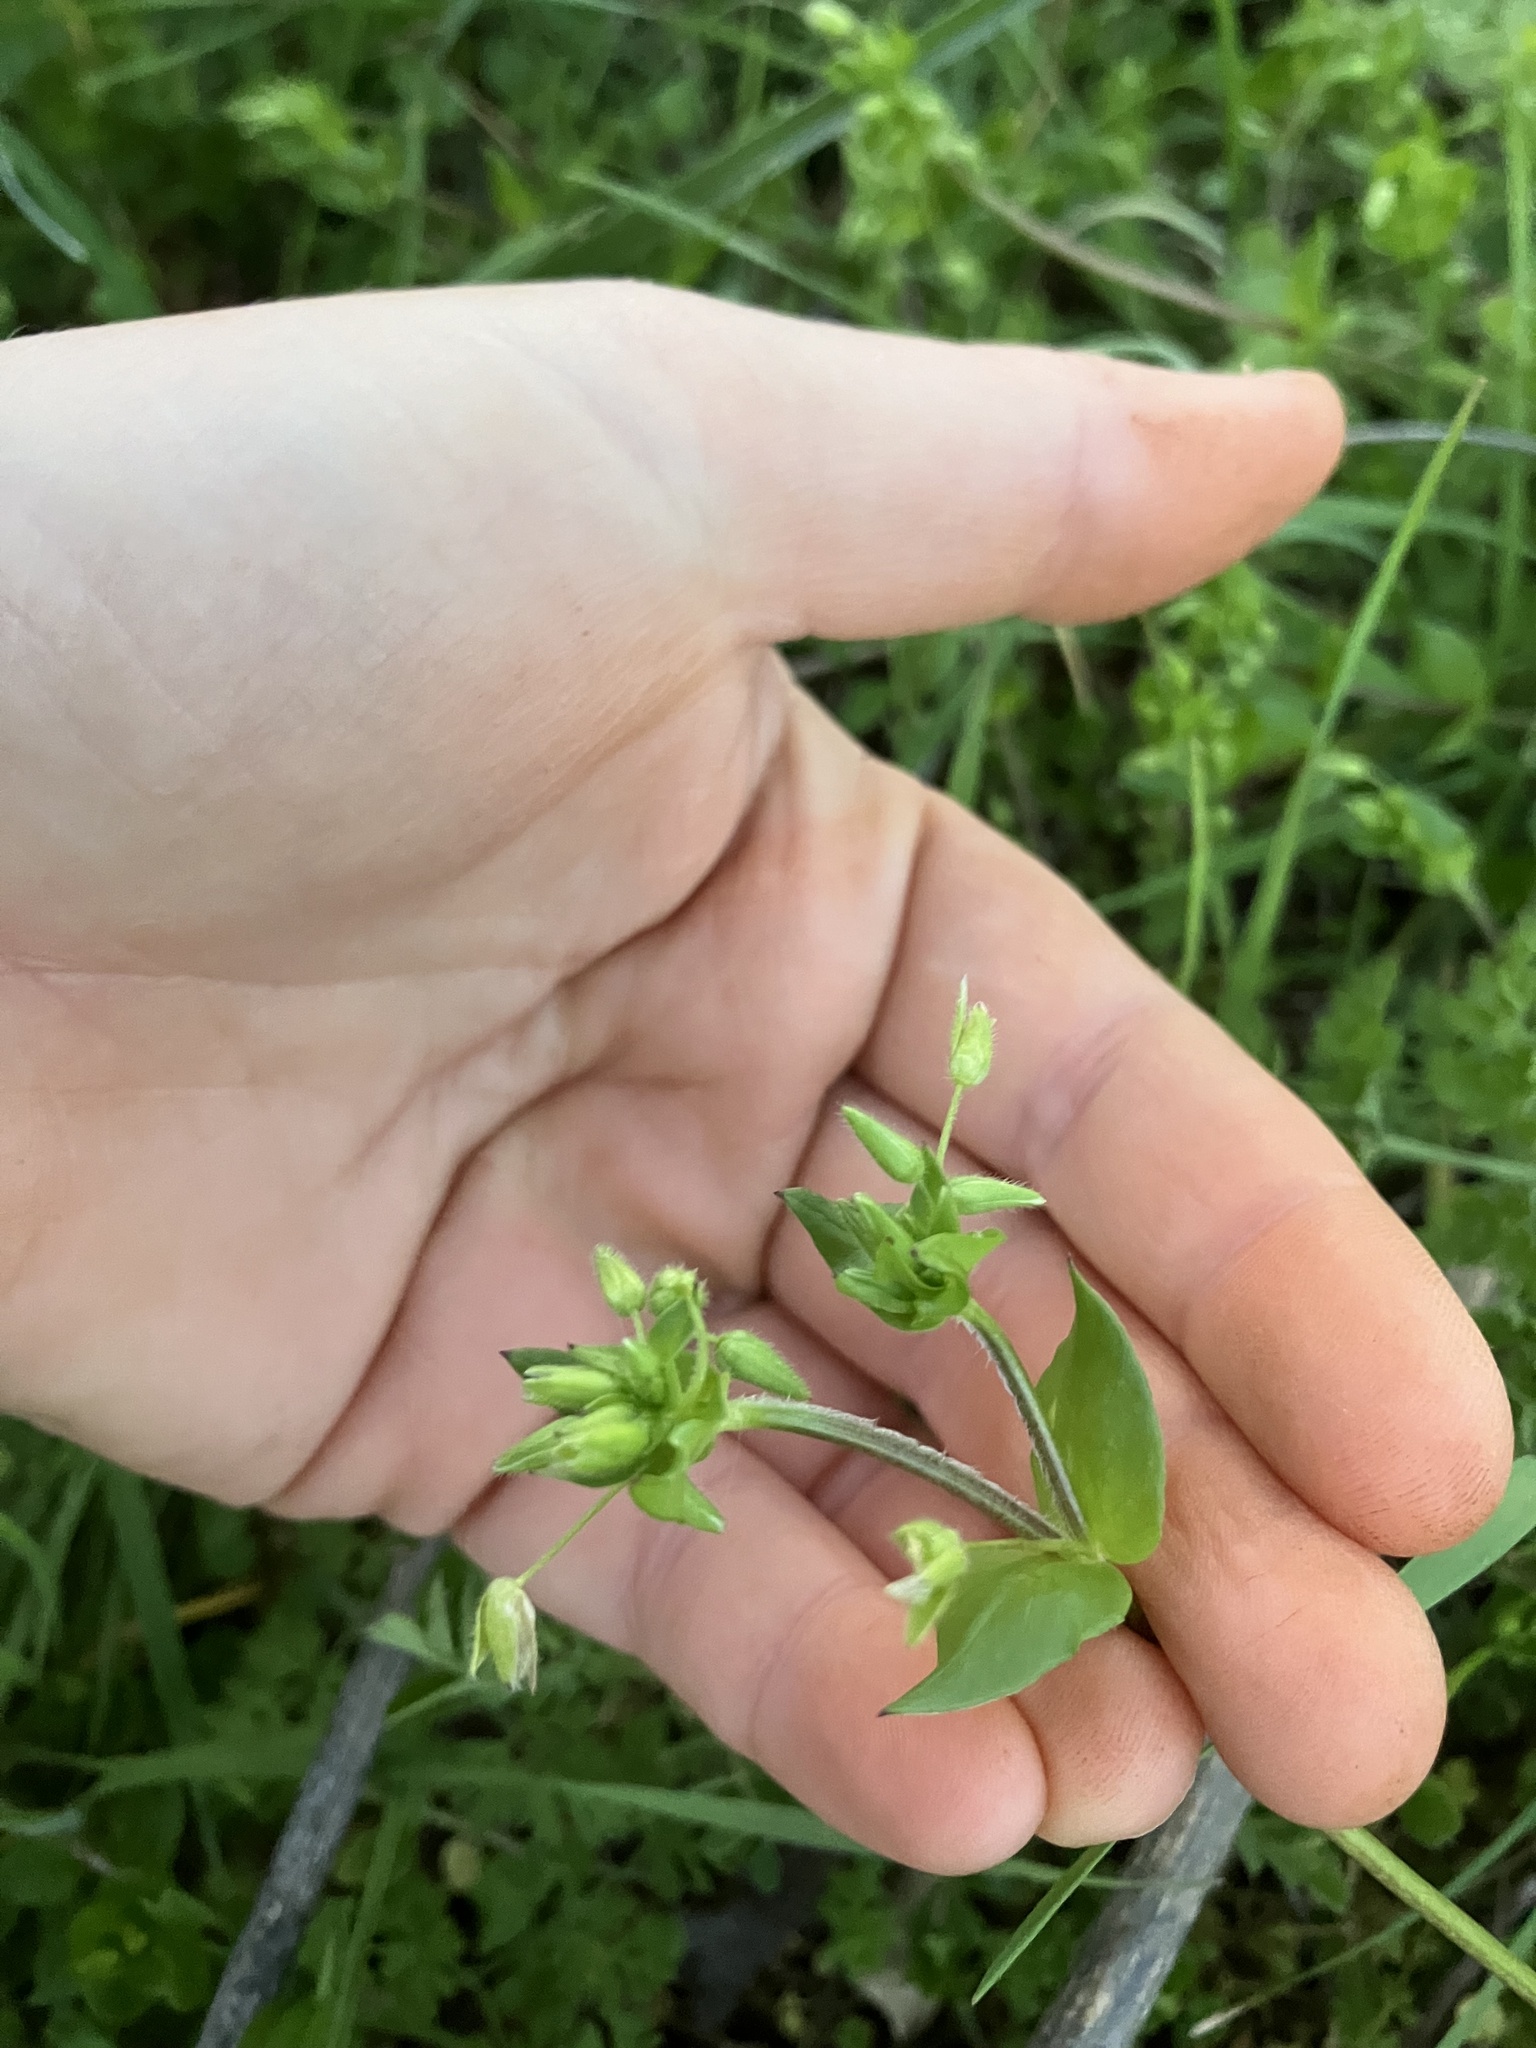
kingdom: Plantae
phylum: Tracheophyta
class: Magnoliopsida
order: Caryophyllales
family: Caryophyllaceae
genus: Stellaria
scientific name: Stellaria media
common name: Common chickweed
